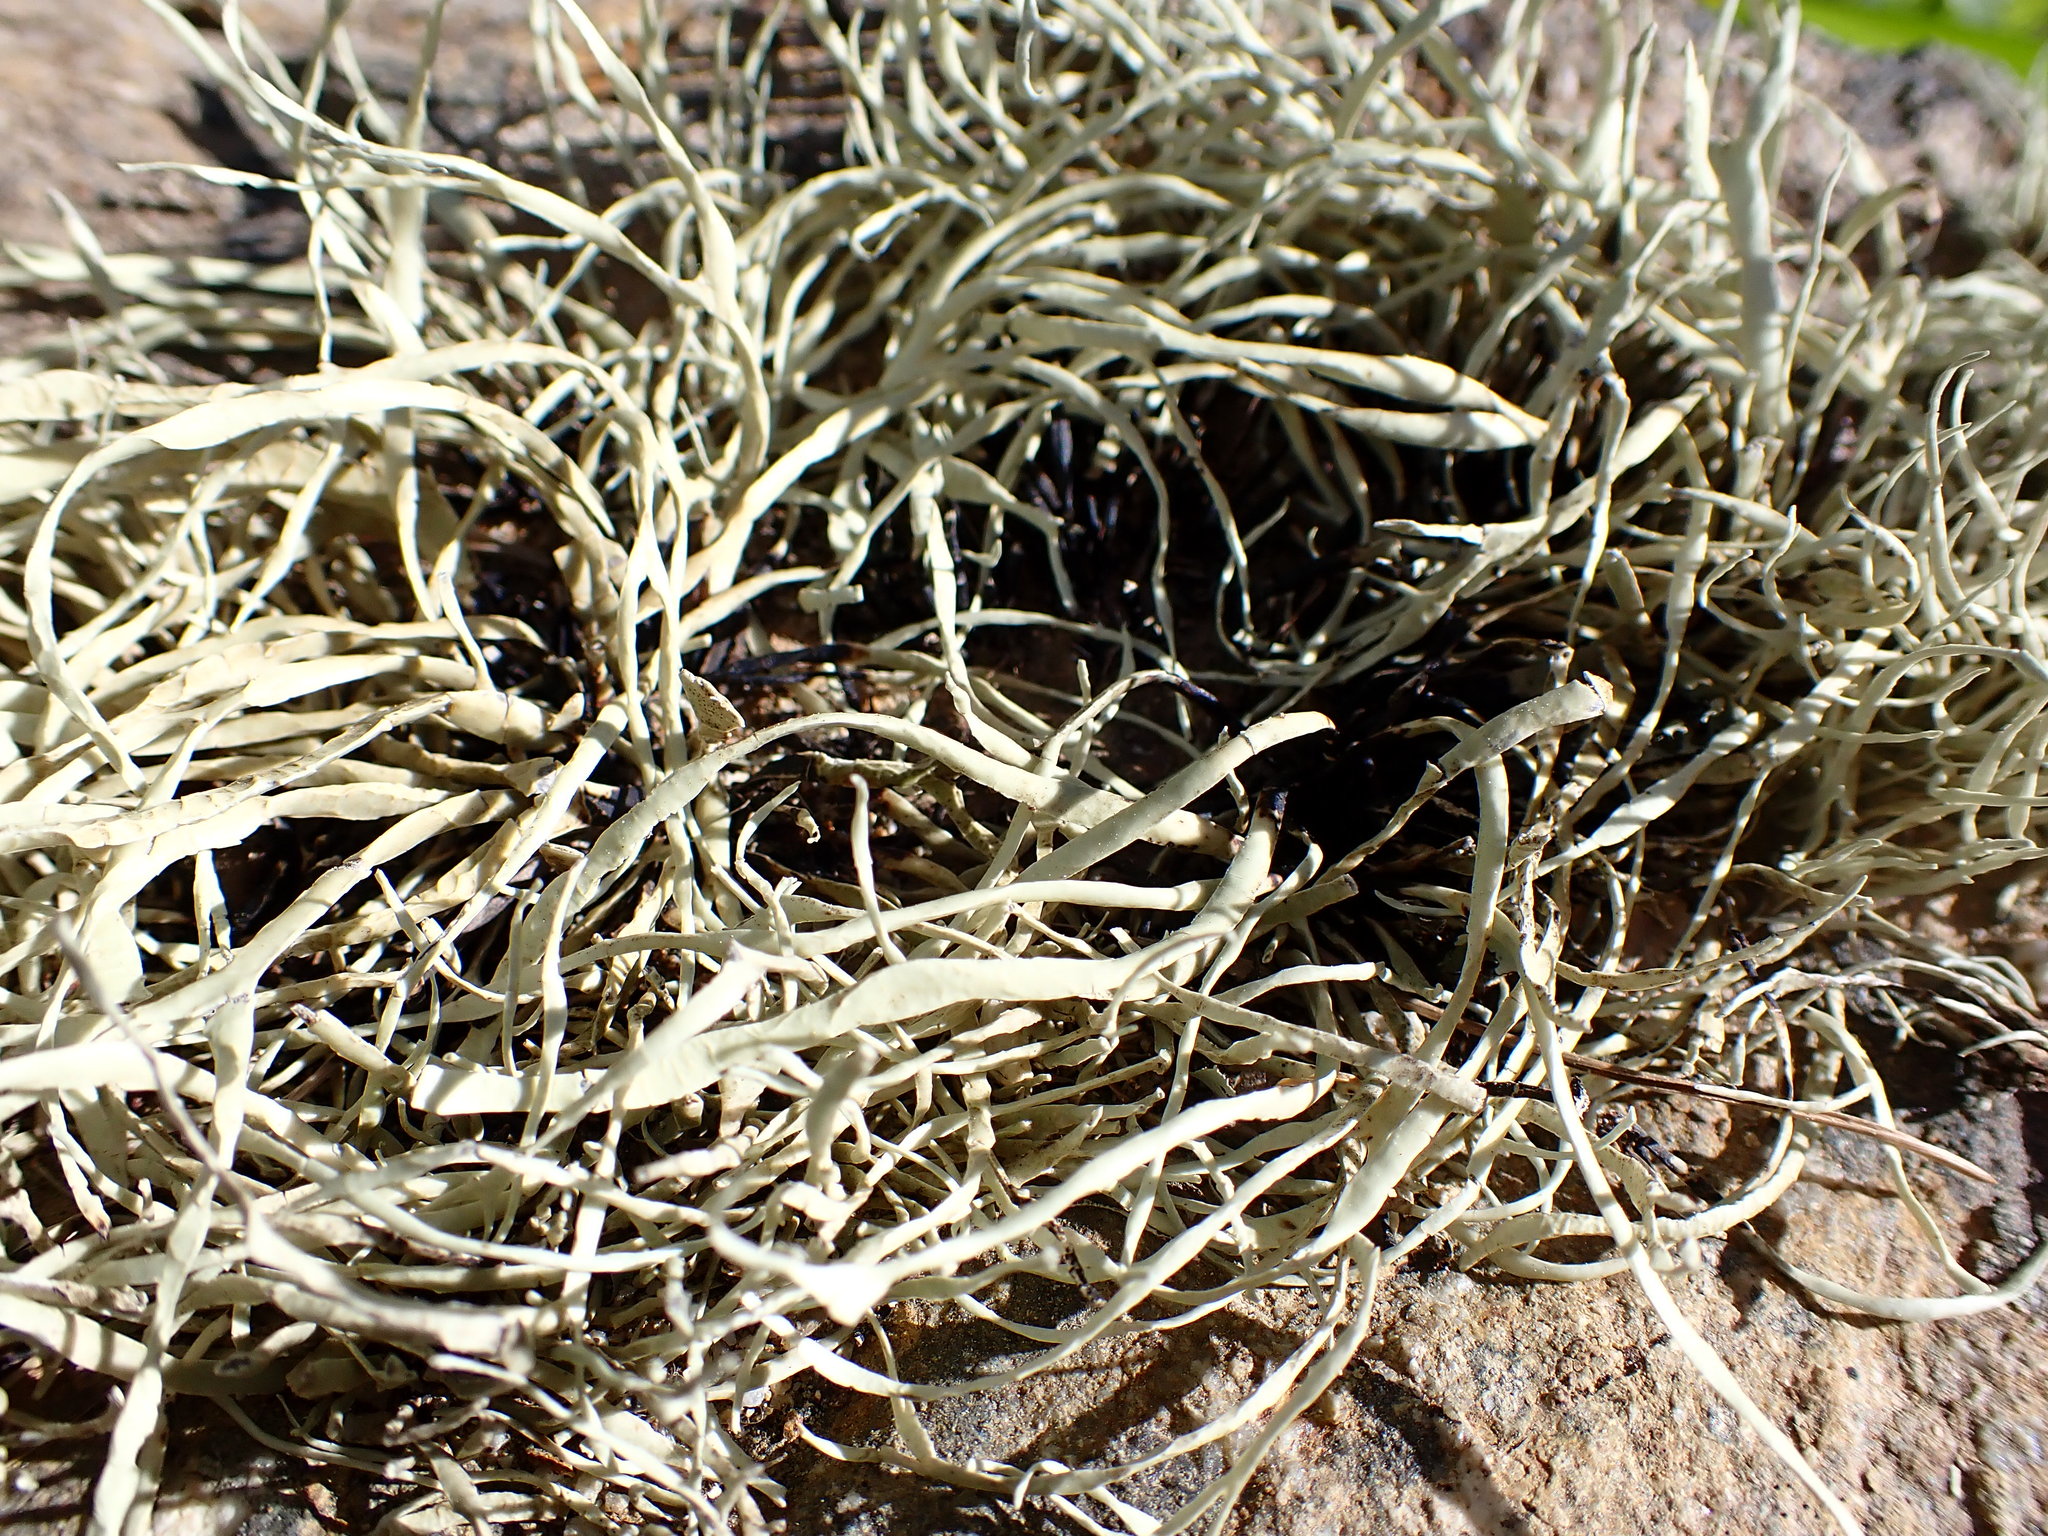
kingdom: Fungi
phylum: Ascomycota
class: Lecanoromycetes
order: Lecanorales
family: Ramalinaceae
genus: Niebla
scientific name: Niebla homalea
